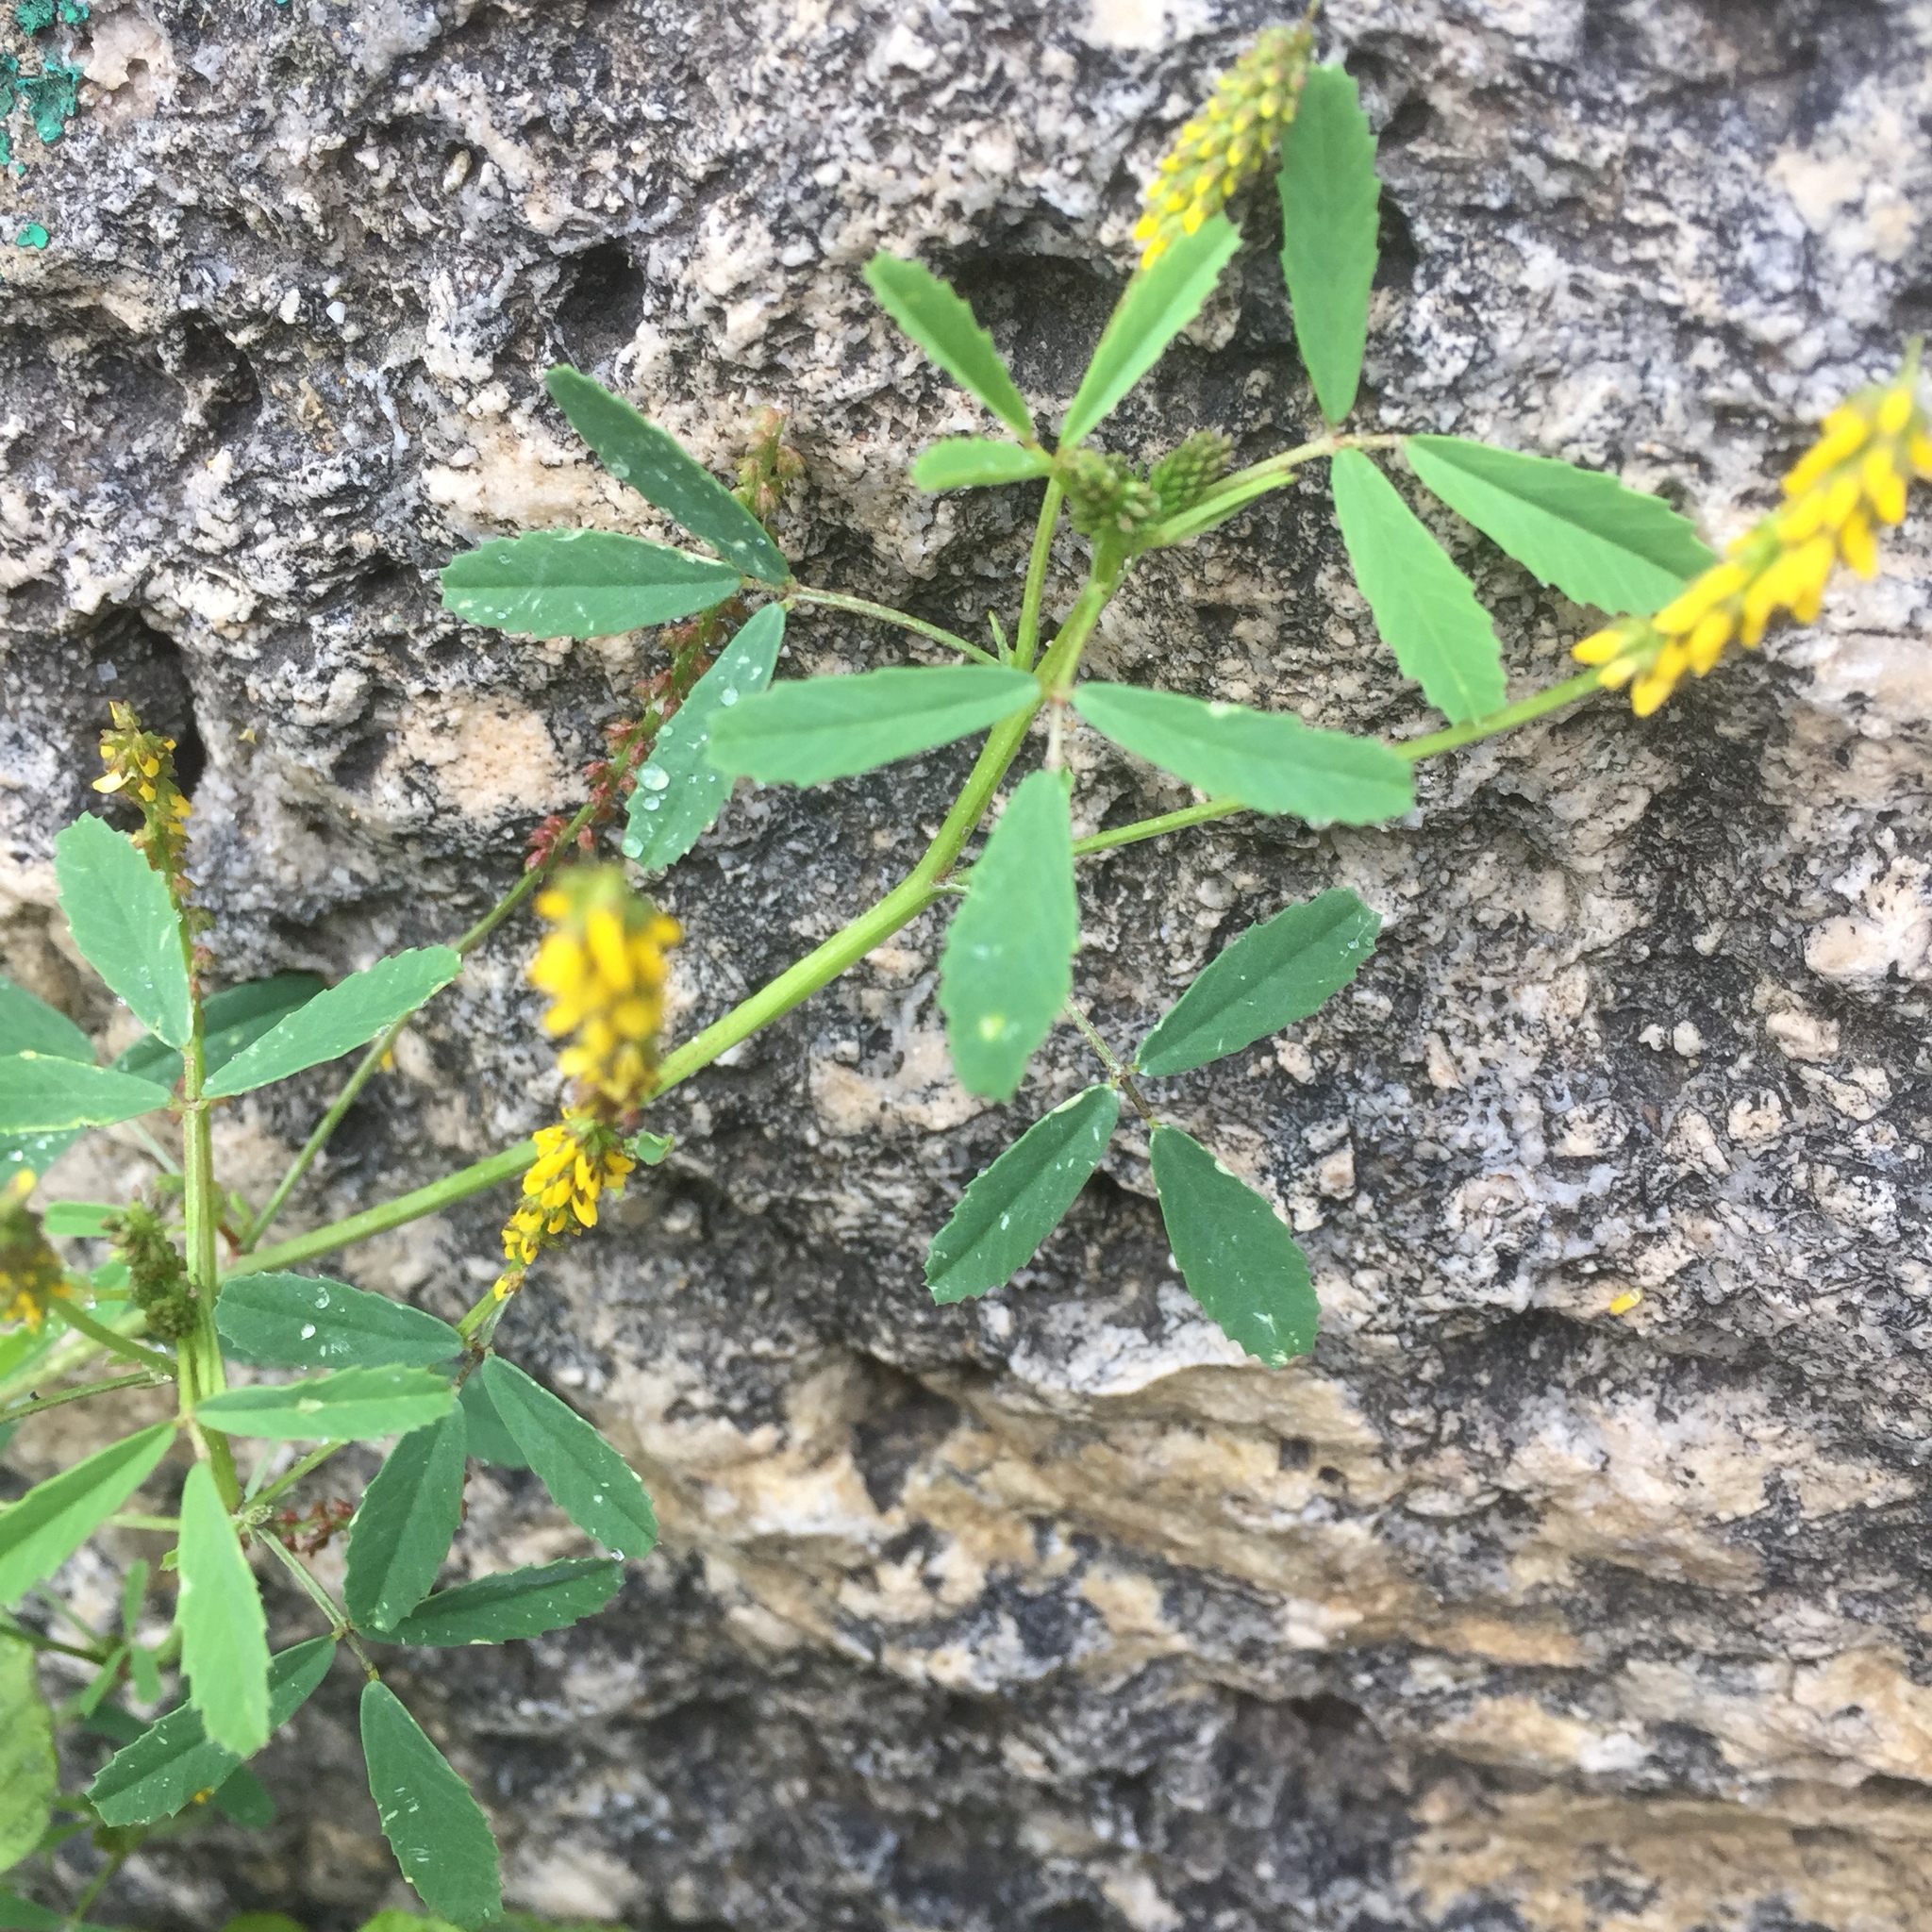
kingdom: Plantae
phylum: Tracheophyta
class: Magnoliopsida
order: Fabales
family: Fabaceae
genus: Melilotus
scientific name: Melilotus indicus
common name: Small melilot
